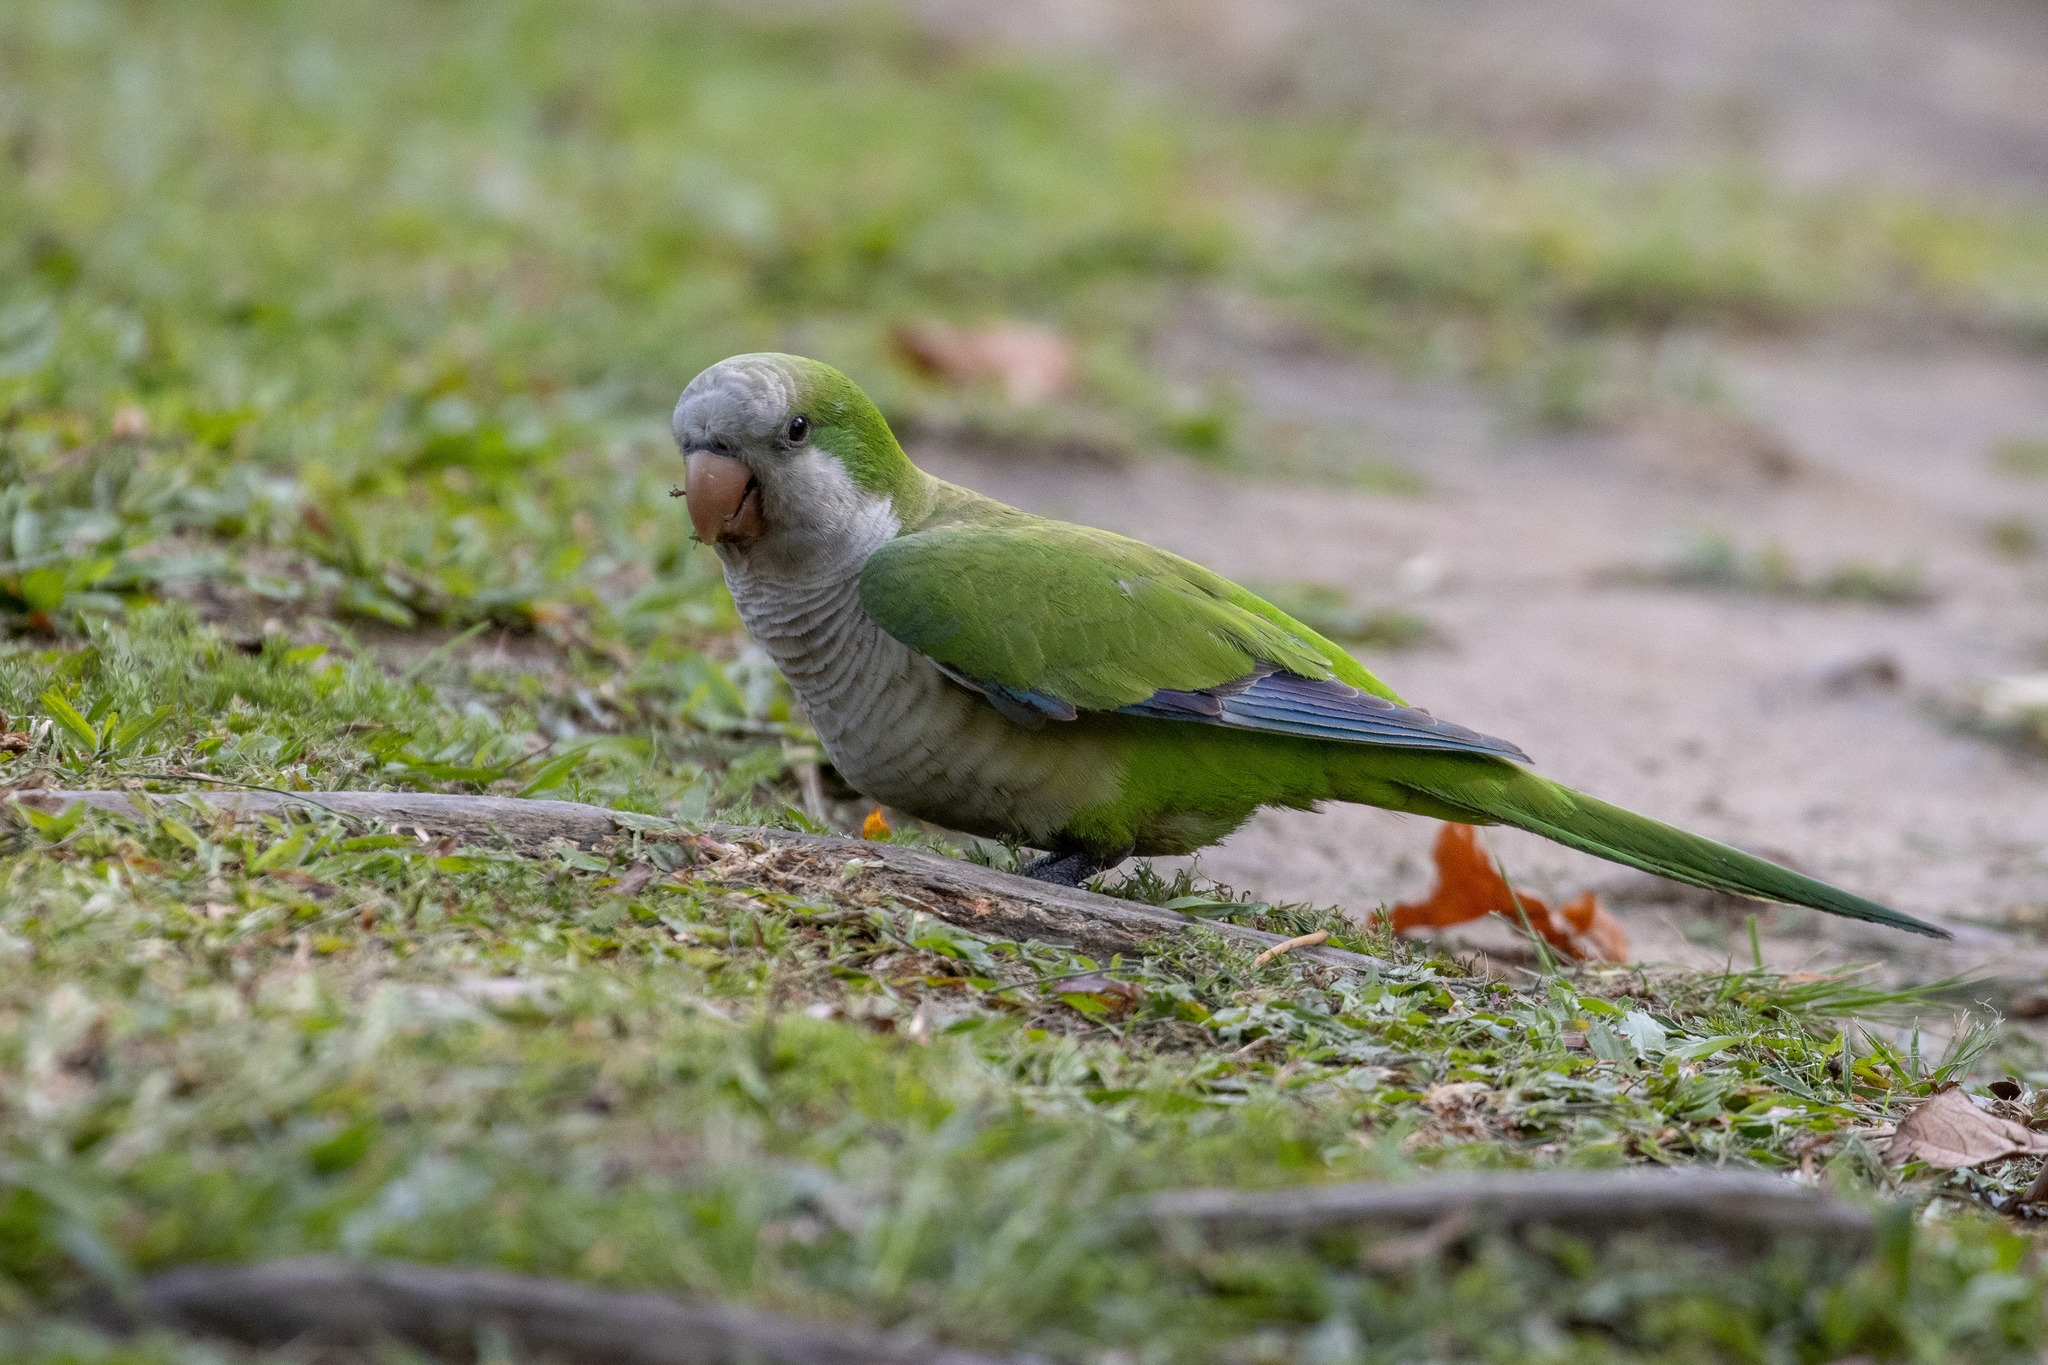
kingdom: Animalia
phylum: Chordata
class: Aves
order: Psittaciformes
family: Psittacidae
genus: Myiopsitta
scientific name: Myiopsitta monachus
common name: Monk parakeet
